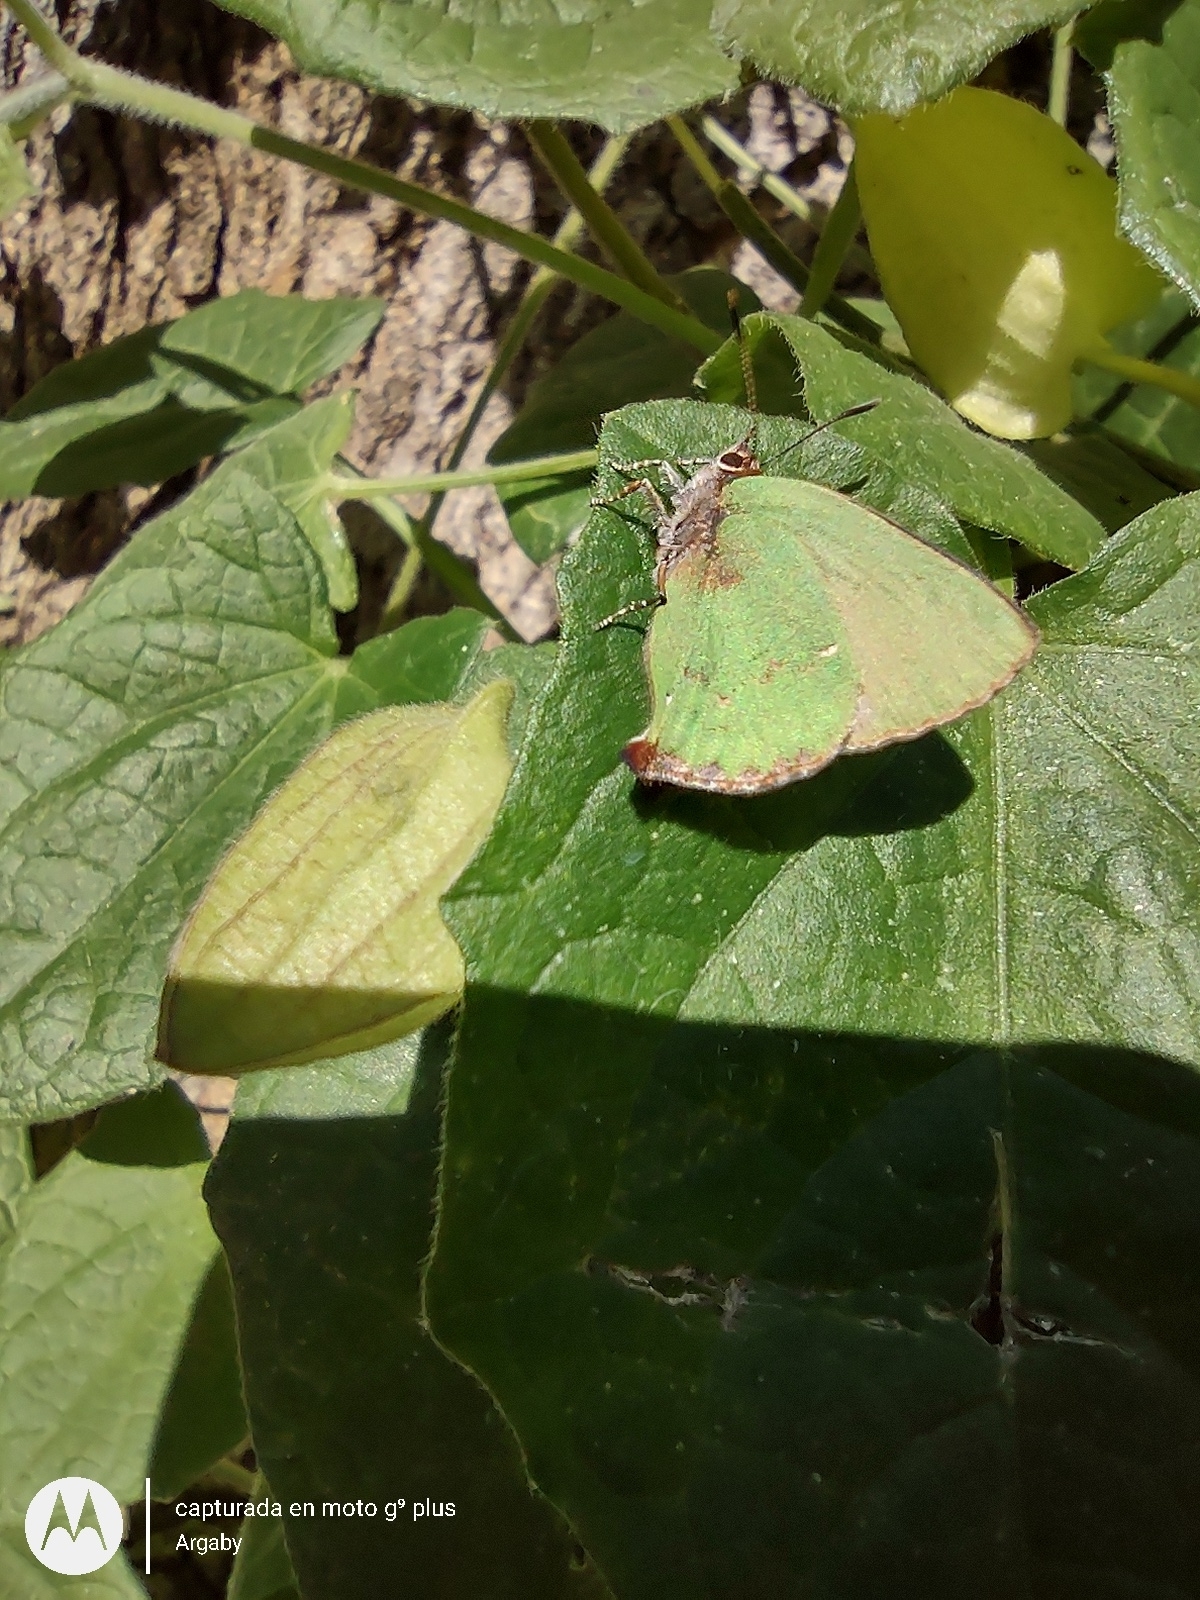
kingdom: Animalia
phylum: Arthropoda
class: Insecta
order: Lepidoptera
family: Lycaenidae
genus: Cyanophrys
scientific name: Cyanophrys
